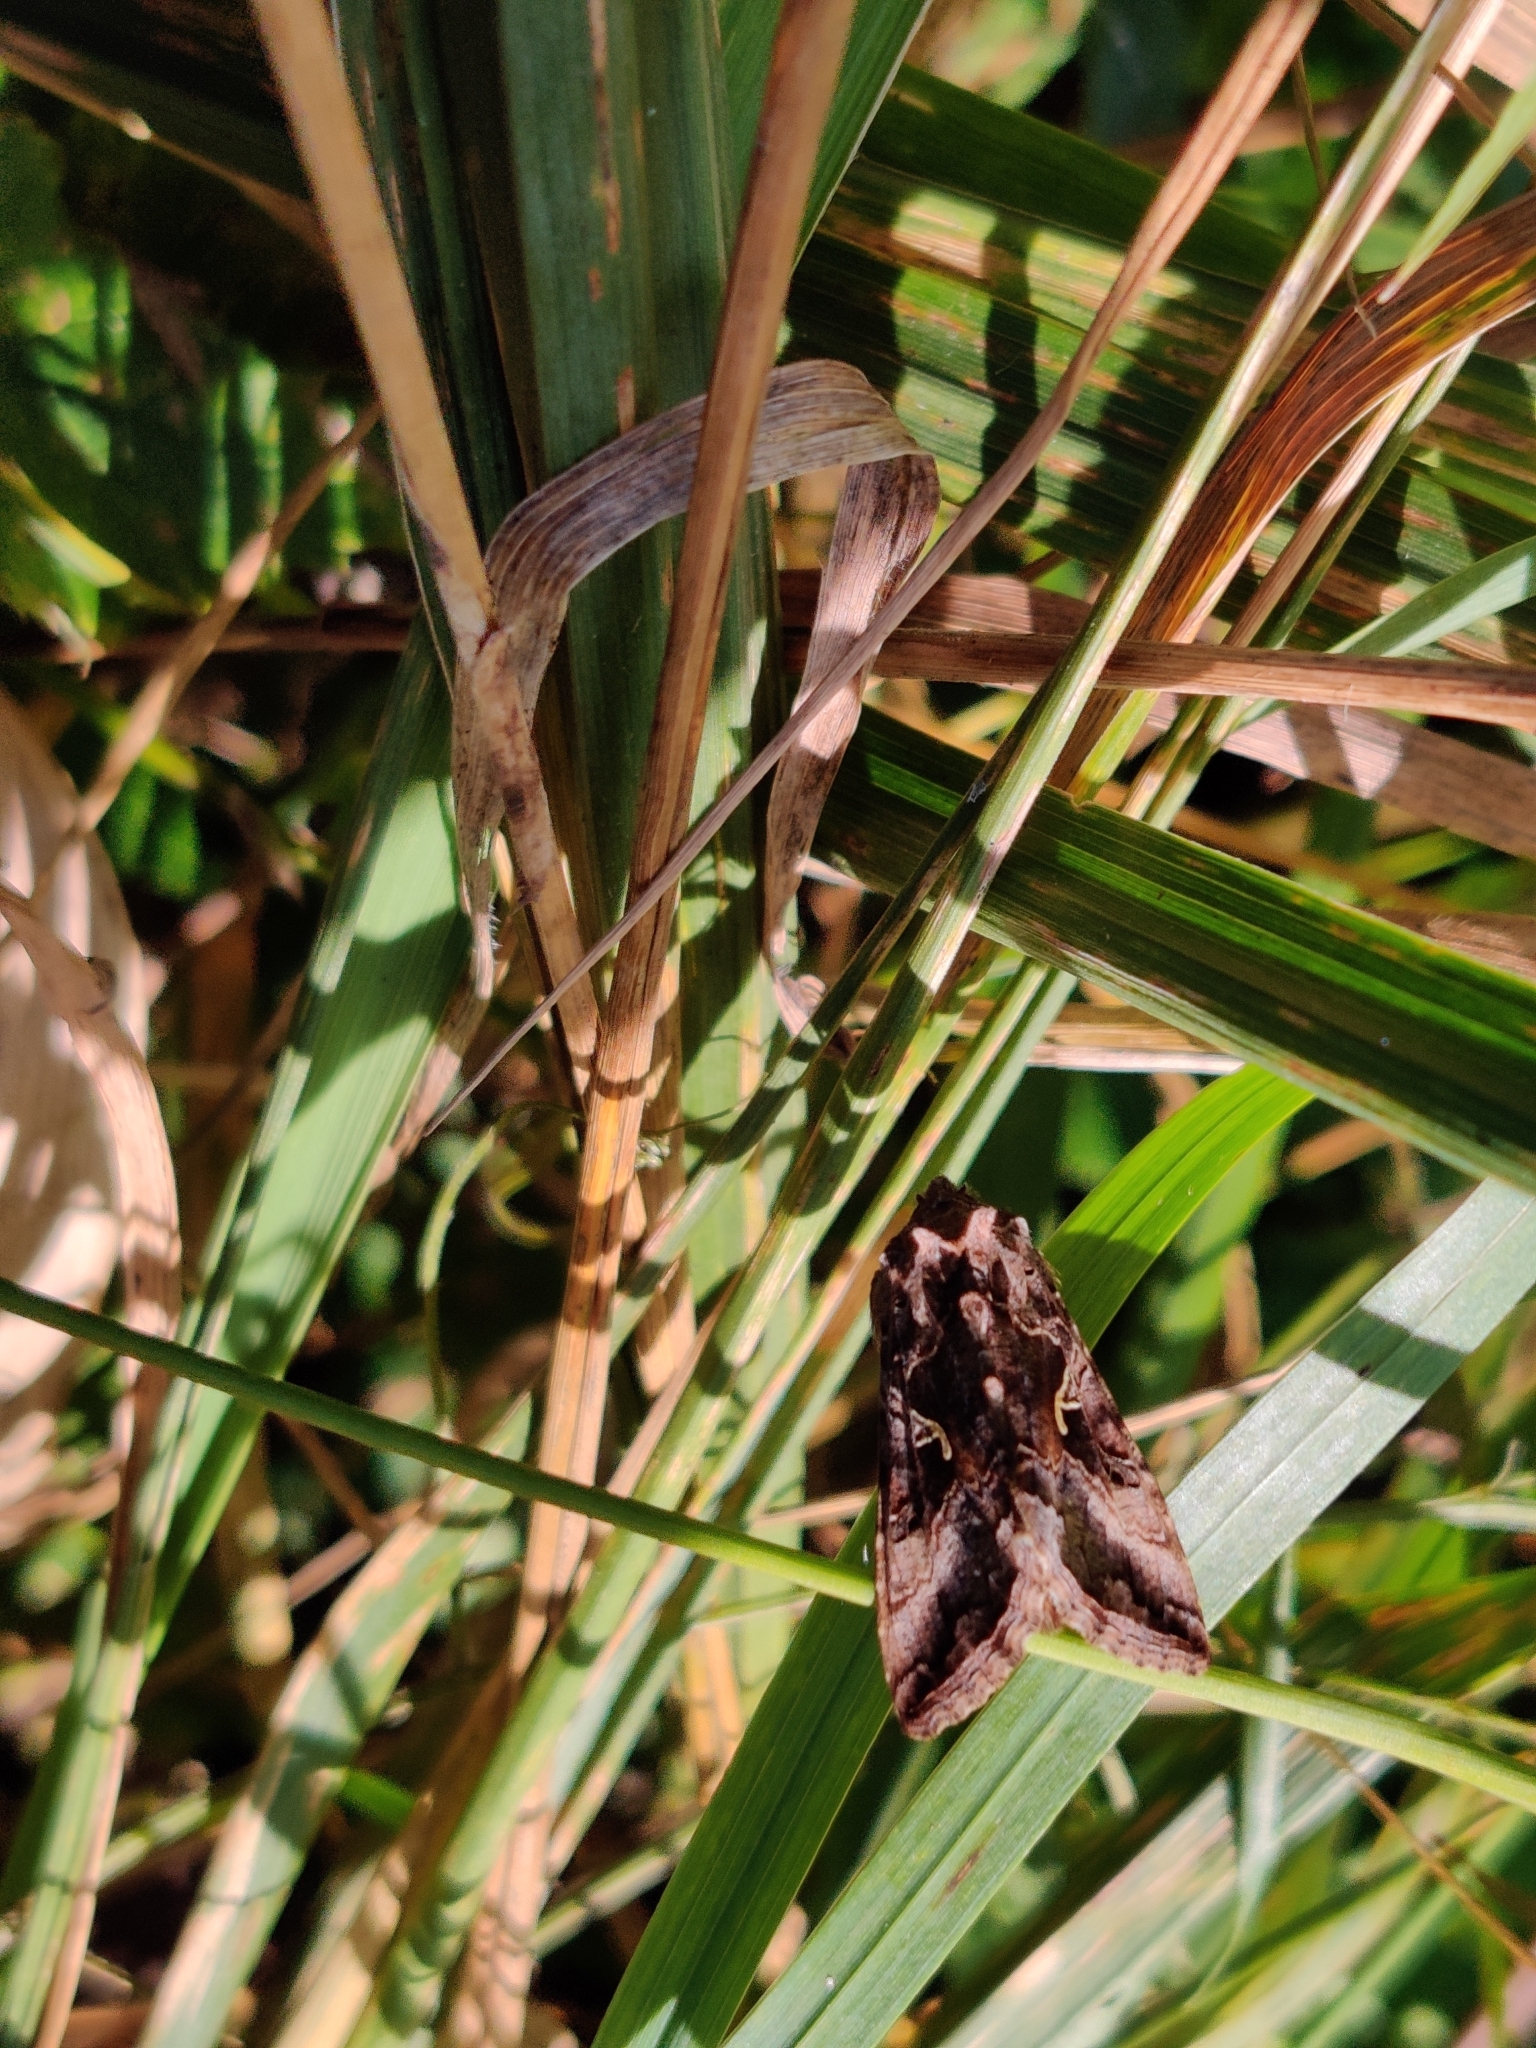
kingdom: Animalia
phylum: Arthropoda
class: Insecta
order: Lepidoptera
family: Noctuidae
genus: Autographa
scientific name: Autographa gamma
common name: Silver y
